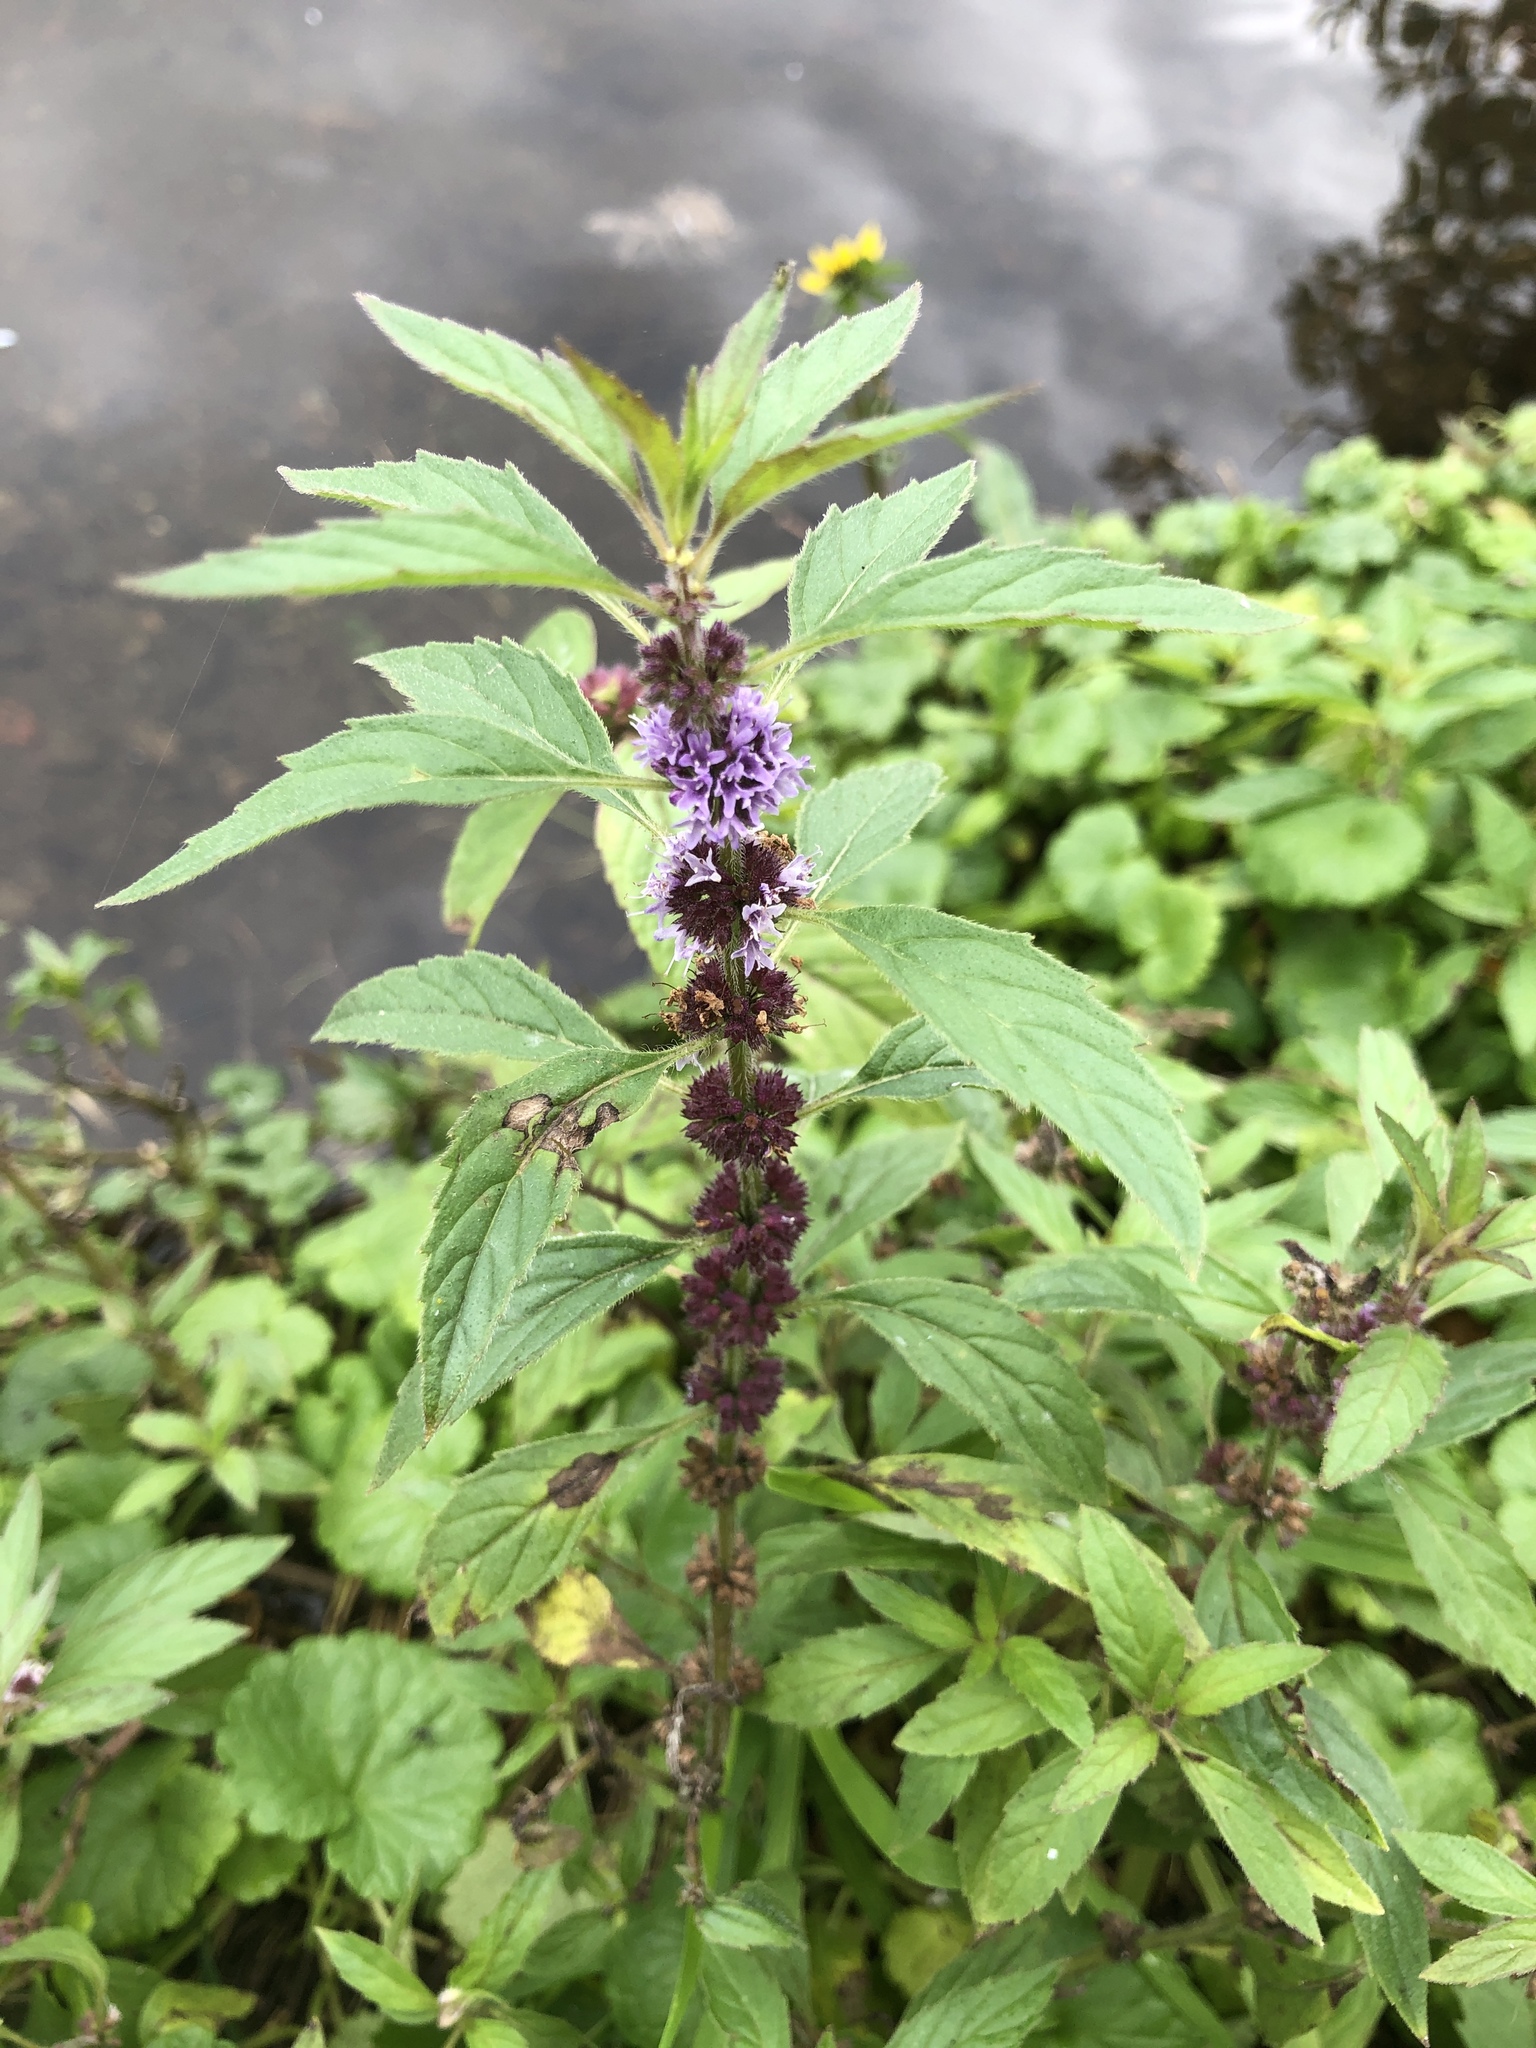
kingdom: Plantae
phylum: Tracheophyta
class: Magnoliopsida
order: Lamiales
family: Lamiaceae
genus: Mentha
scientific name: Mentha arvensis
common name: Corn mint
